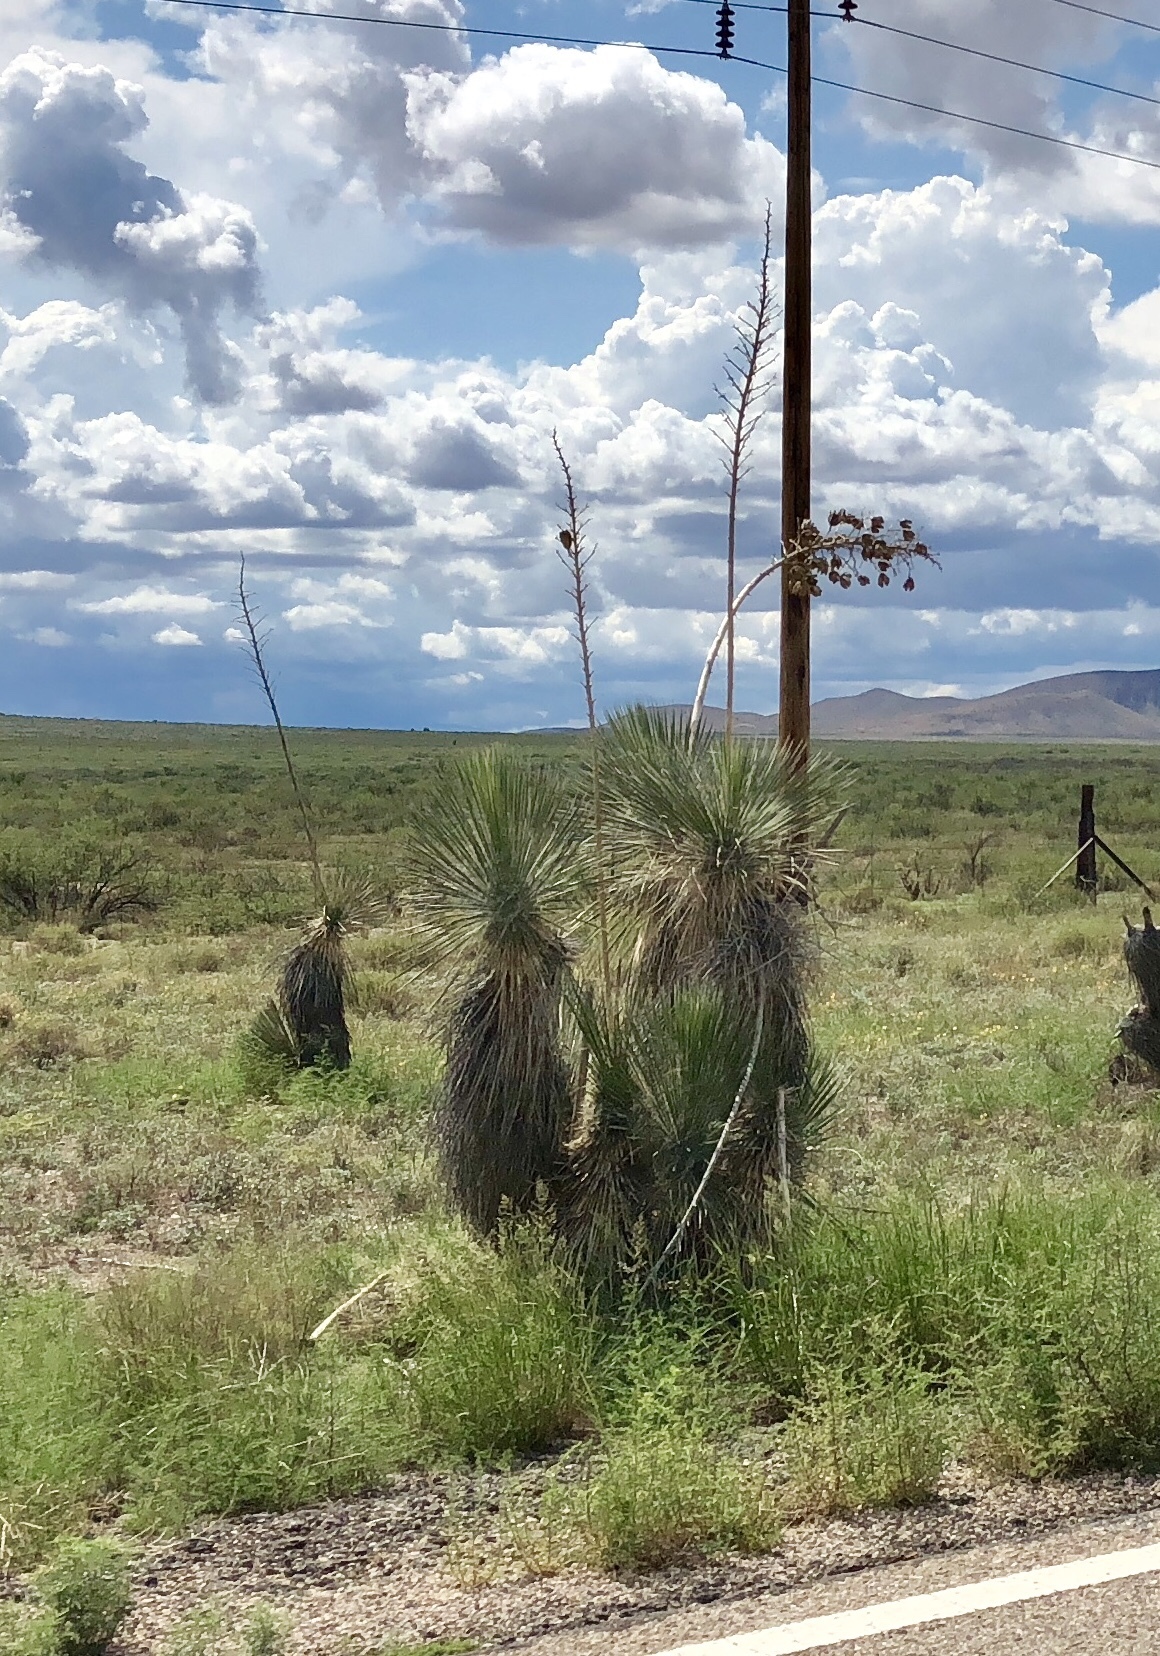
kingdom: Plantae
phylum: Tracheophyta
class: Liliopsida
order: Asparagales
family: Asparagaceae
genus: Yucca
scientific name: Yucca elata
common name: Palmella
